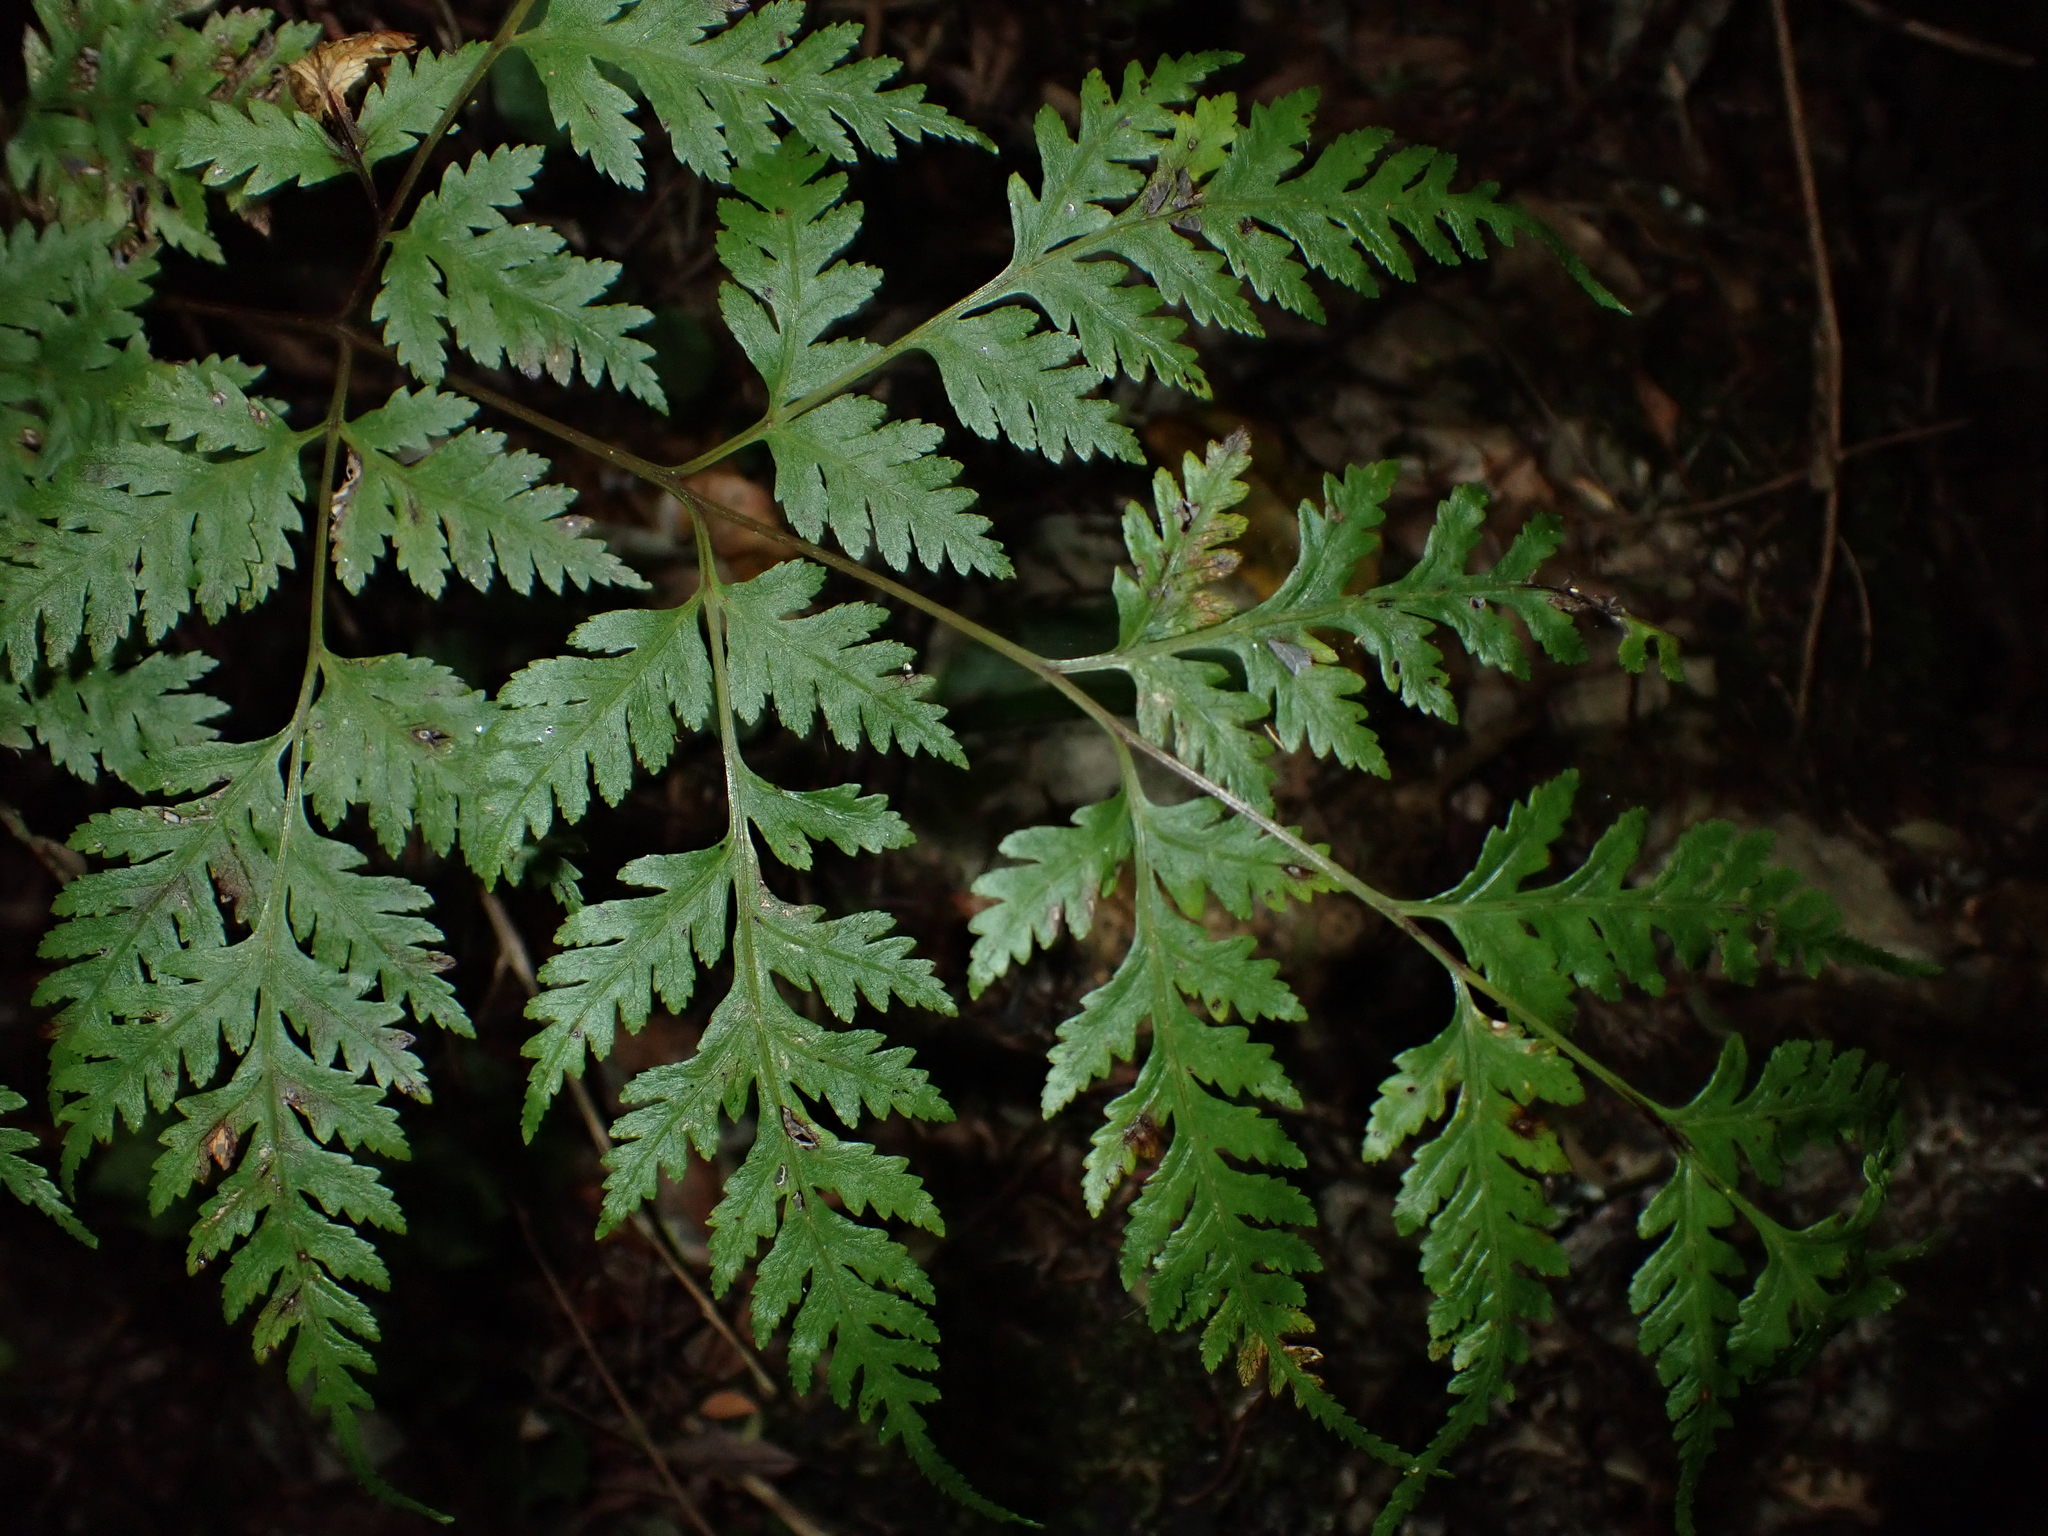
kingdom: Plantae
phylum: Tracheophyta
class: Polypodiopsida
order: Polypodiales
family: Pteridaceae
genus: Pteris
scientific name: Pteris macilenta
